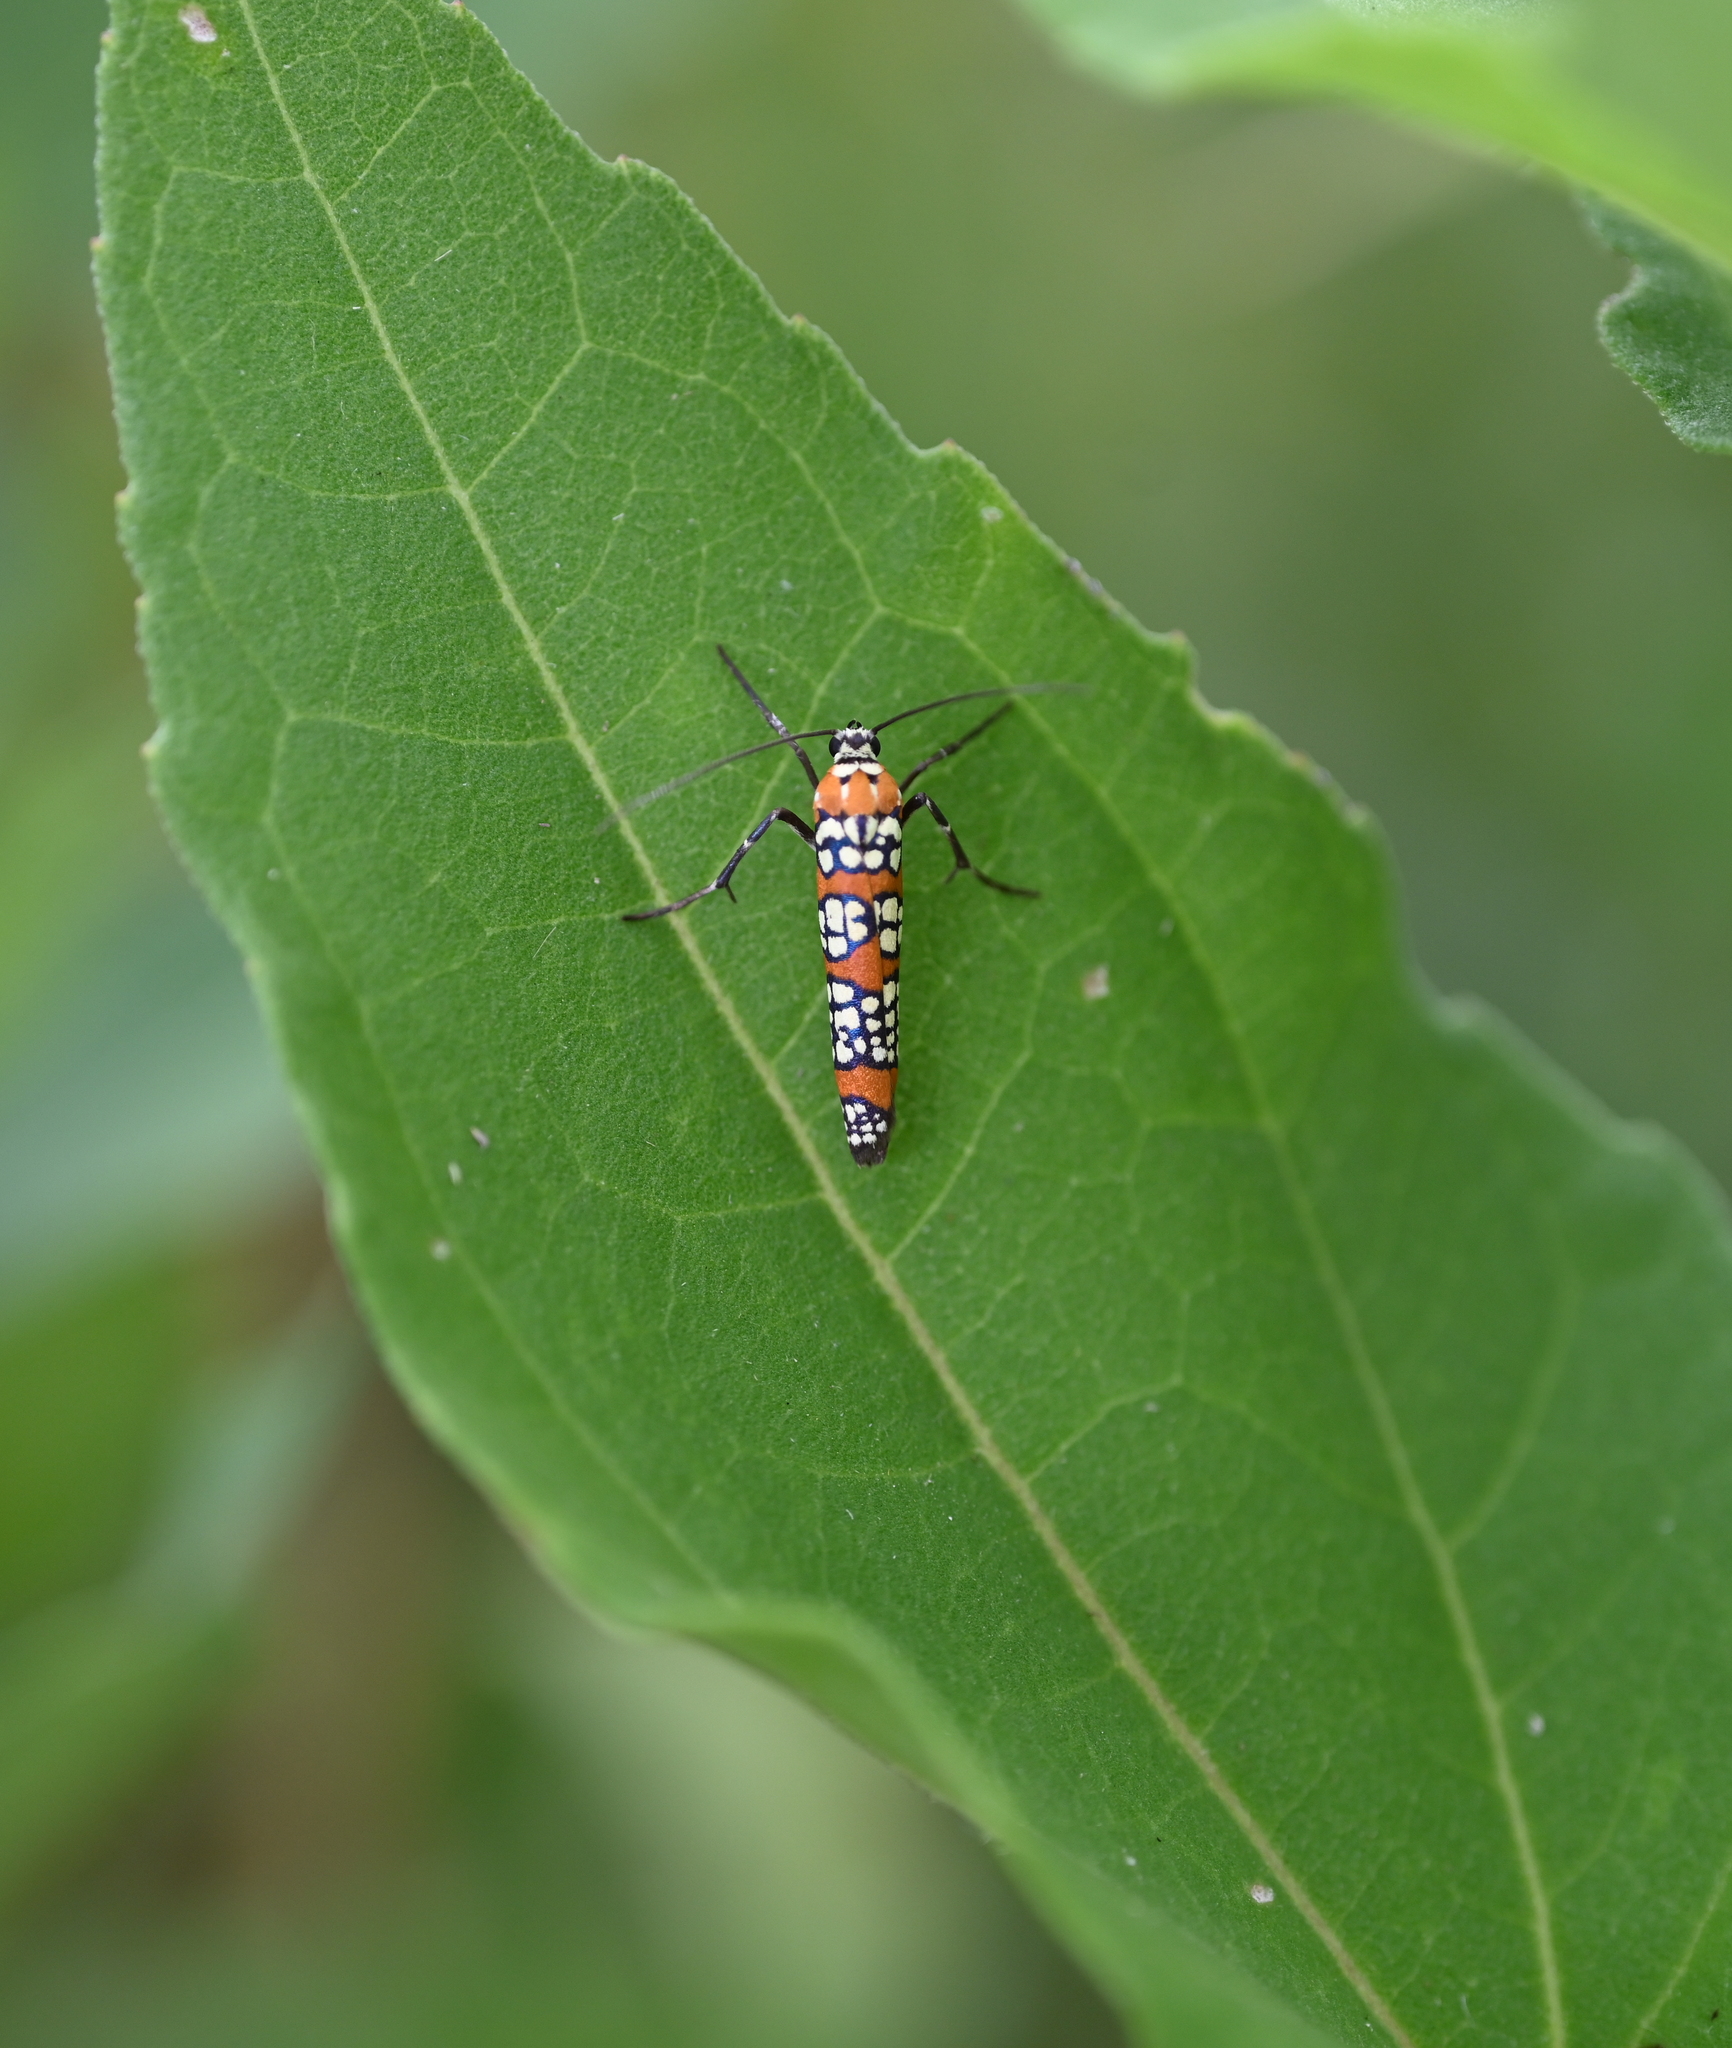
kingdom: Animalia
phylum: Arthropoda
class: Insecta
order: Lepidoptera
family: Attevidae
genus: Atteva
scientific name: Atteva punctella
